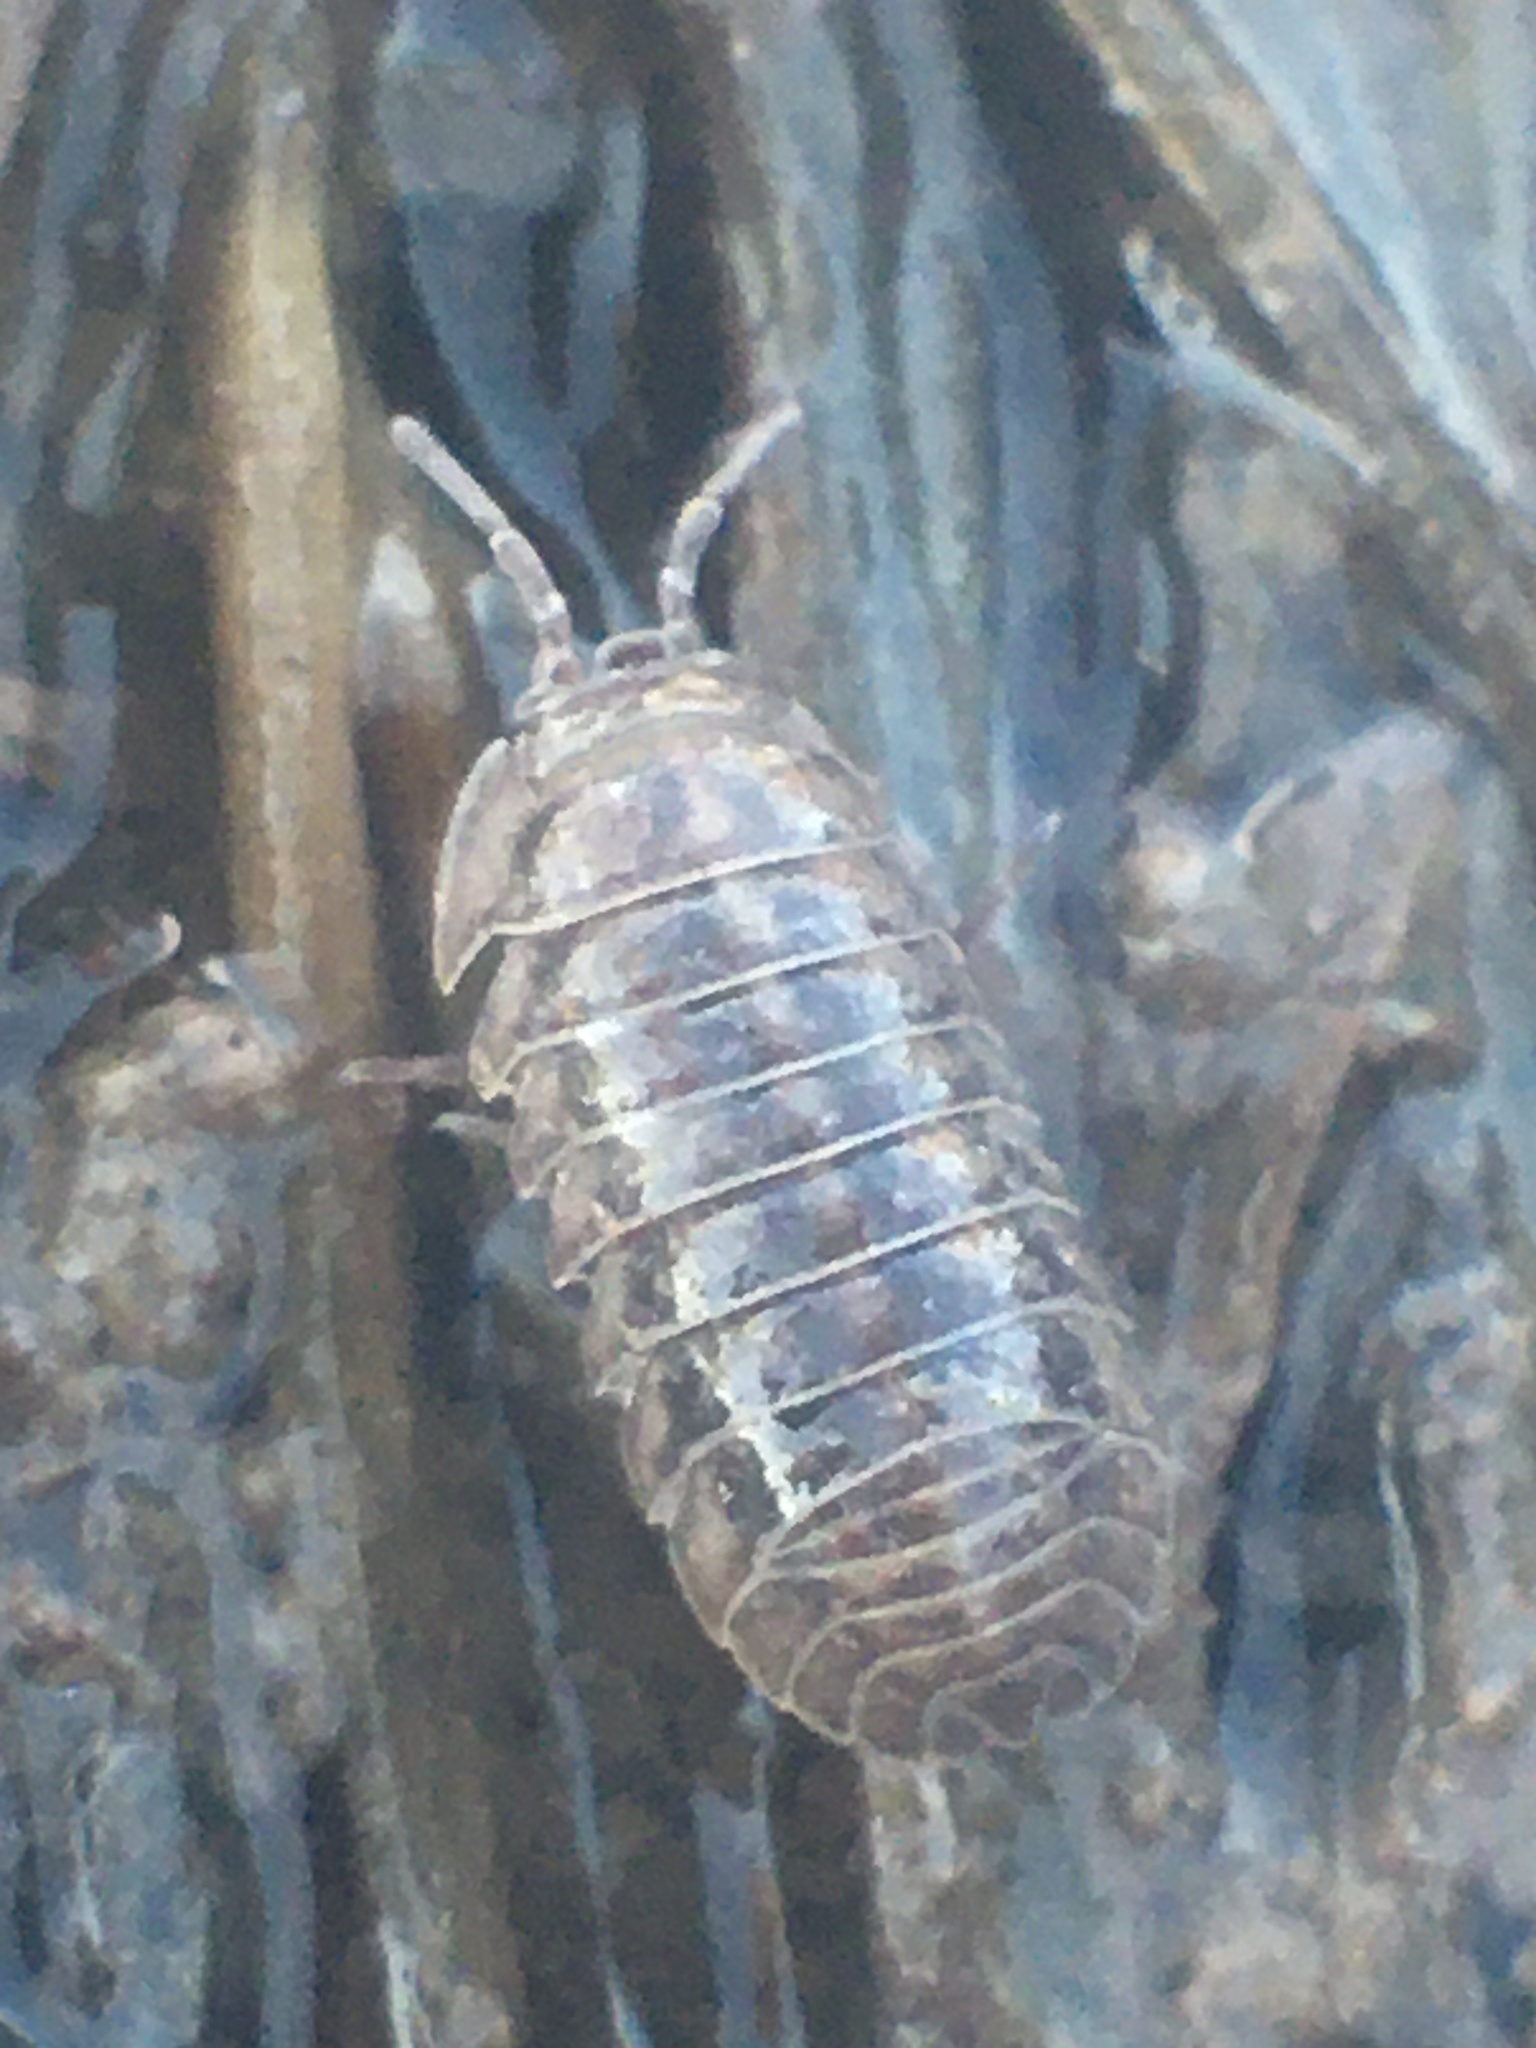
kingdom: Animalia
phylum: Arthropoda
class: Malacostraca
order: Isopoda
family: Armadillidiidae
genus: Armadillidium
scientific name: Armadillidium nasatum
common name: Isopod
